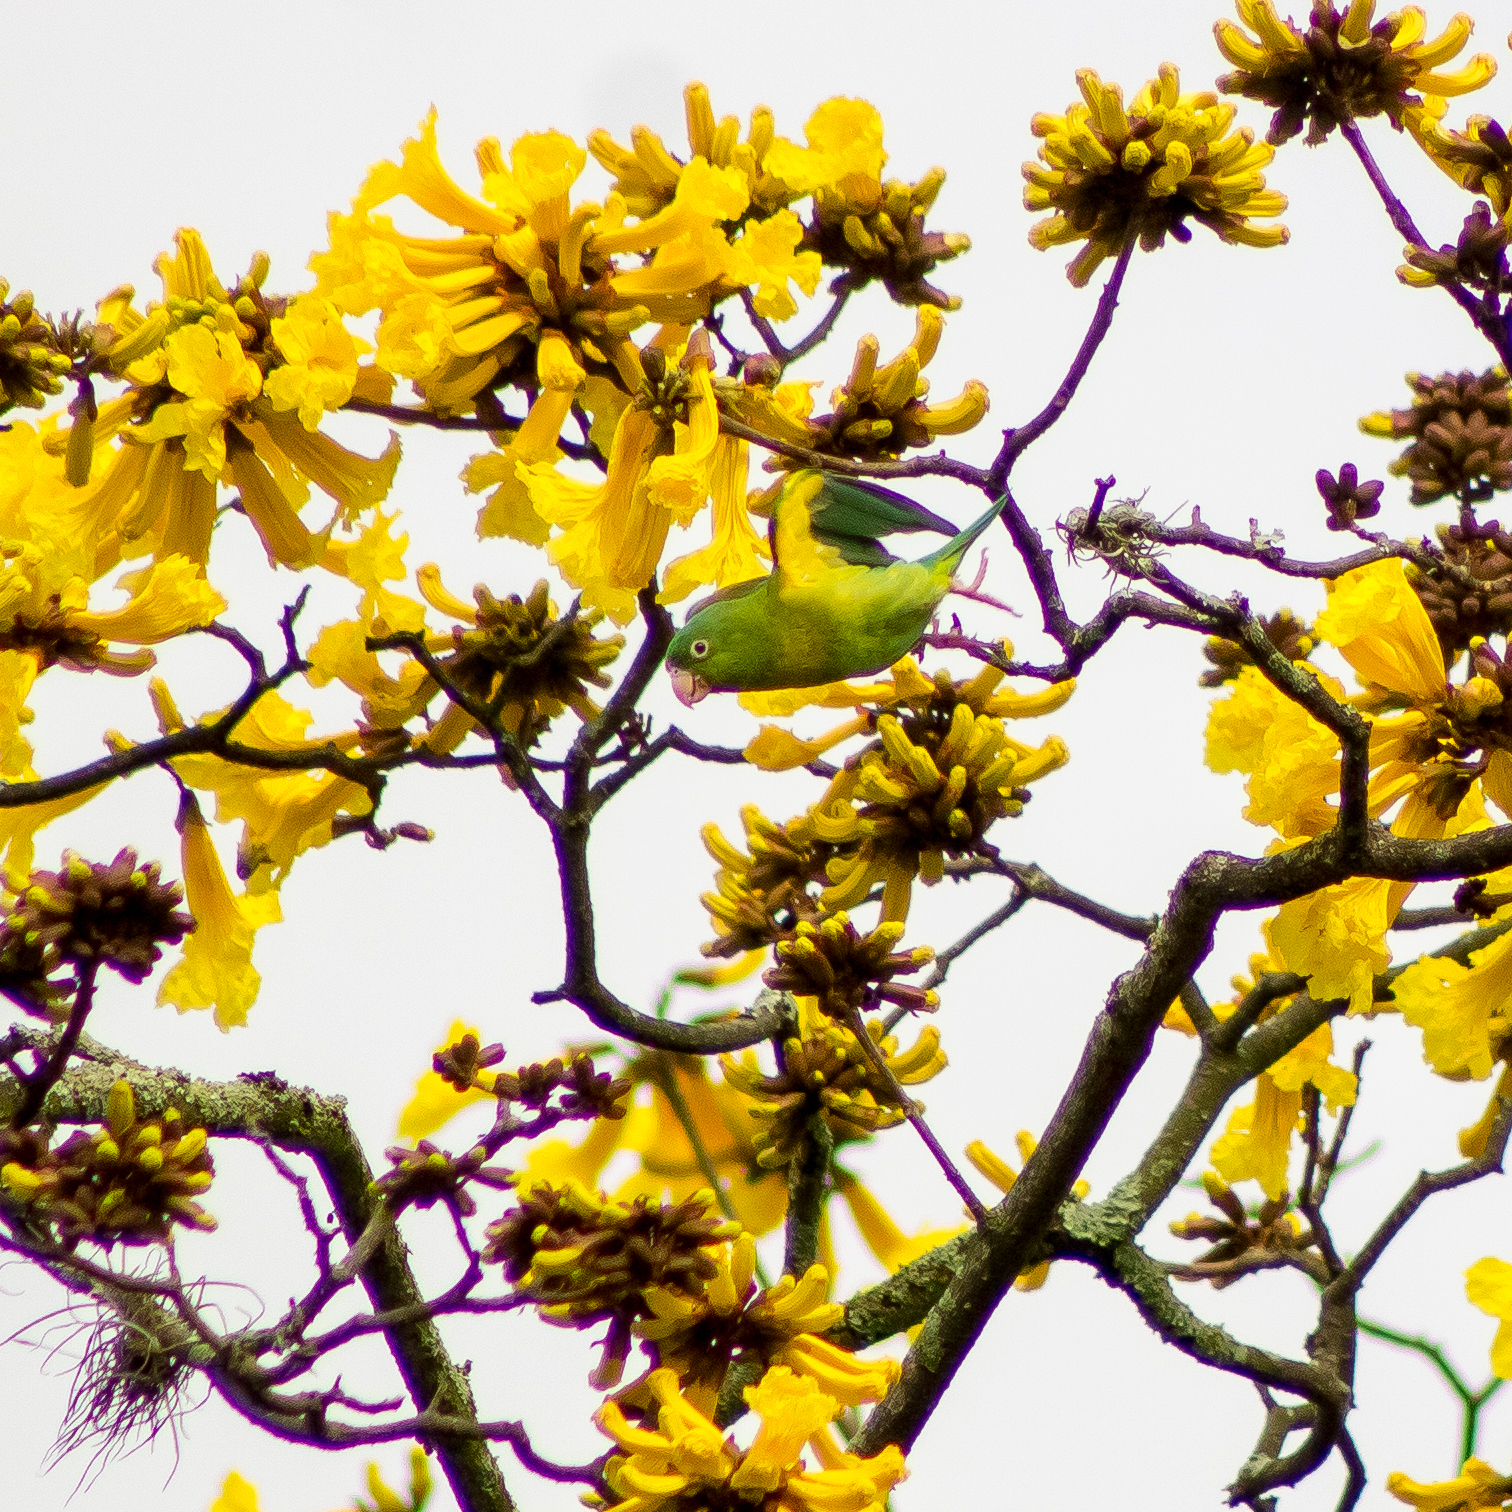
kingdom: Animalia
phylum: Chordata
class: Aves
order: Psittaciformes
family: Psittacidae
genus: Brotogeris
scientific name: Brotogeris jugularis
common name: Orange-chinned parakeet
